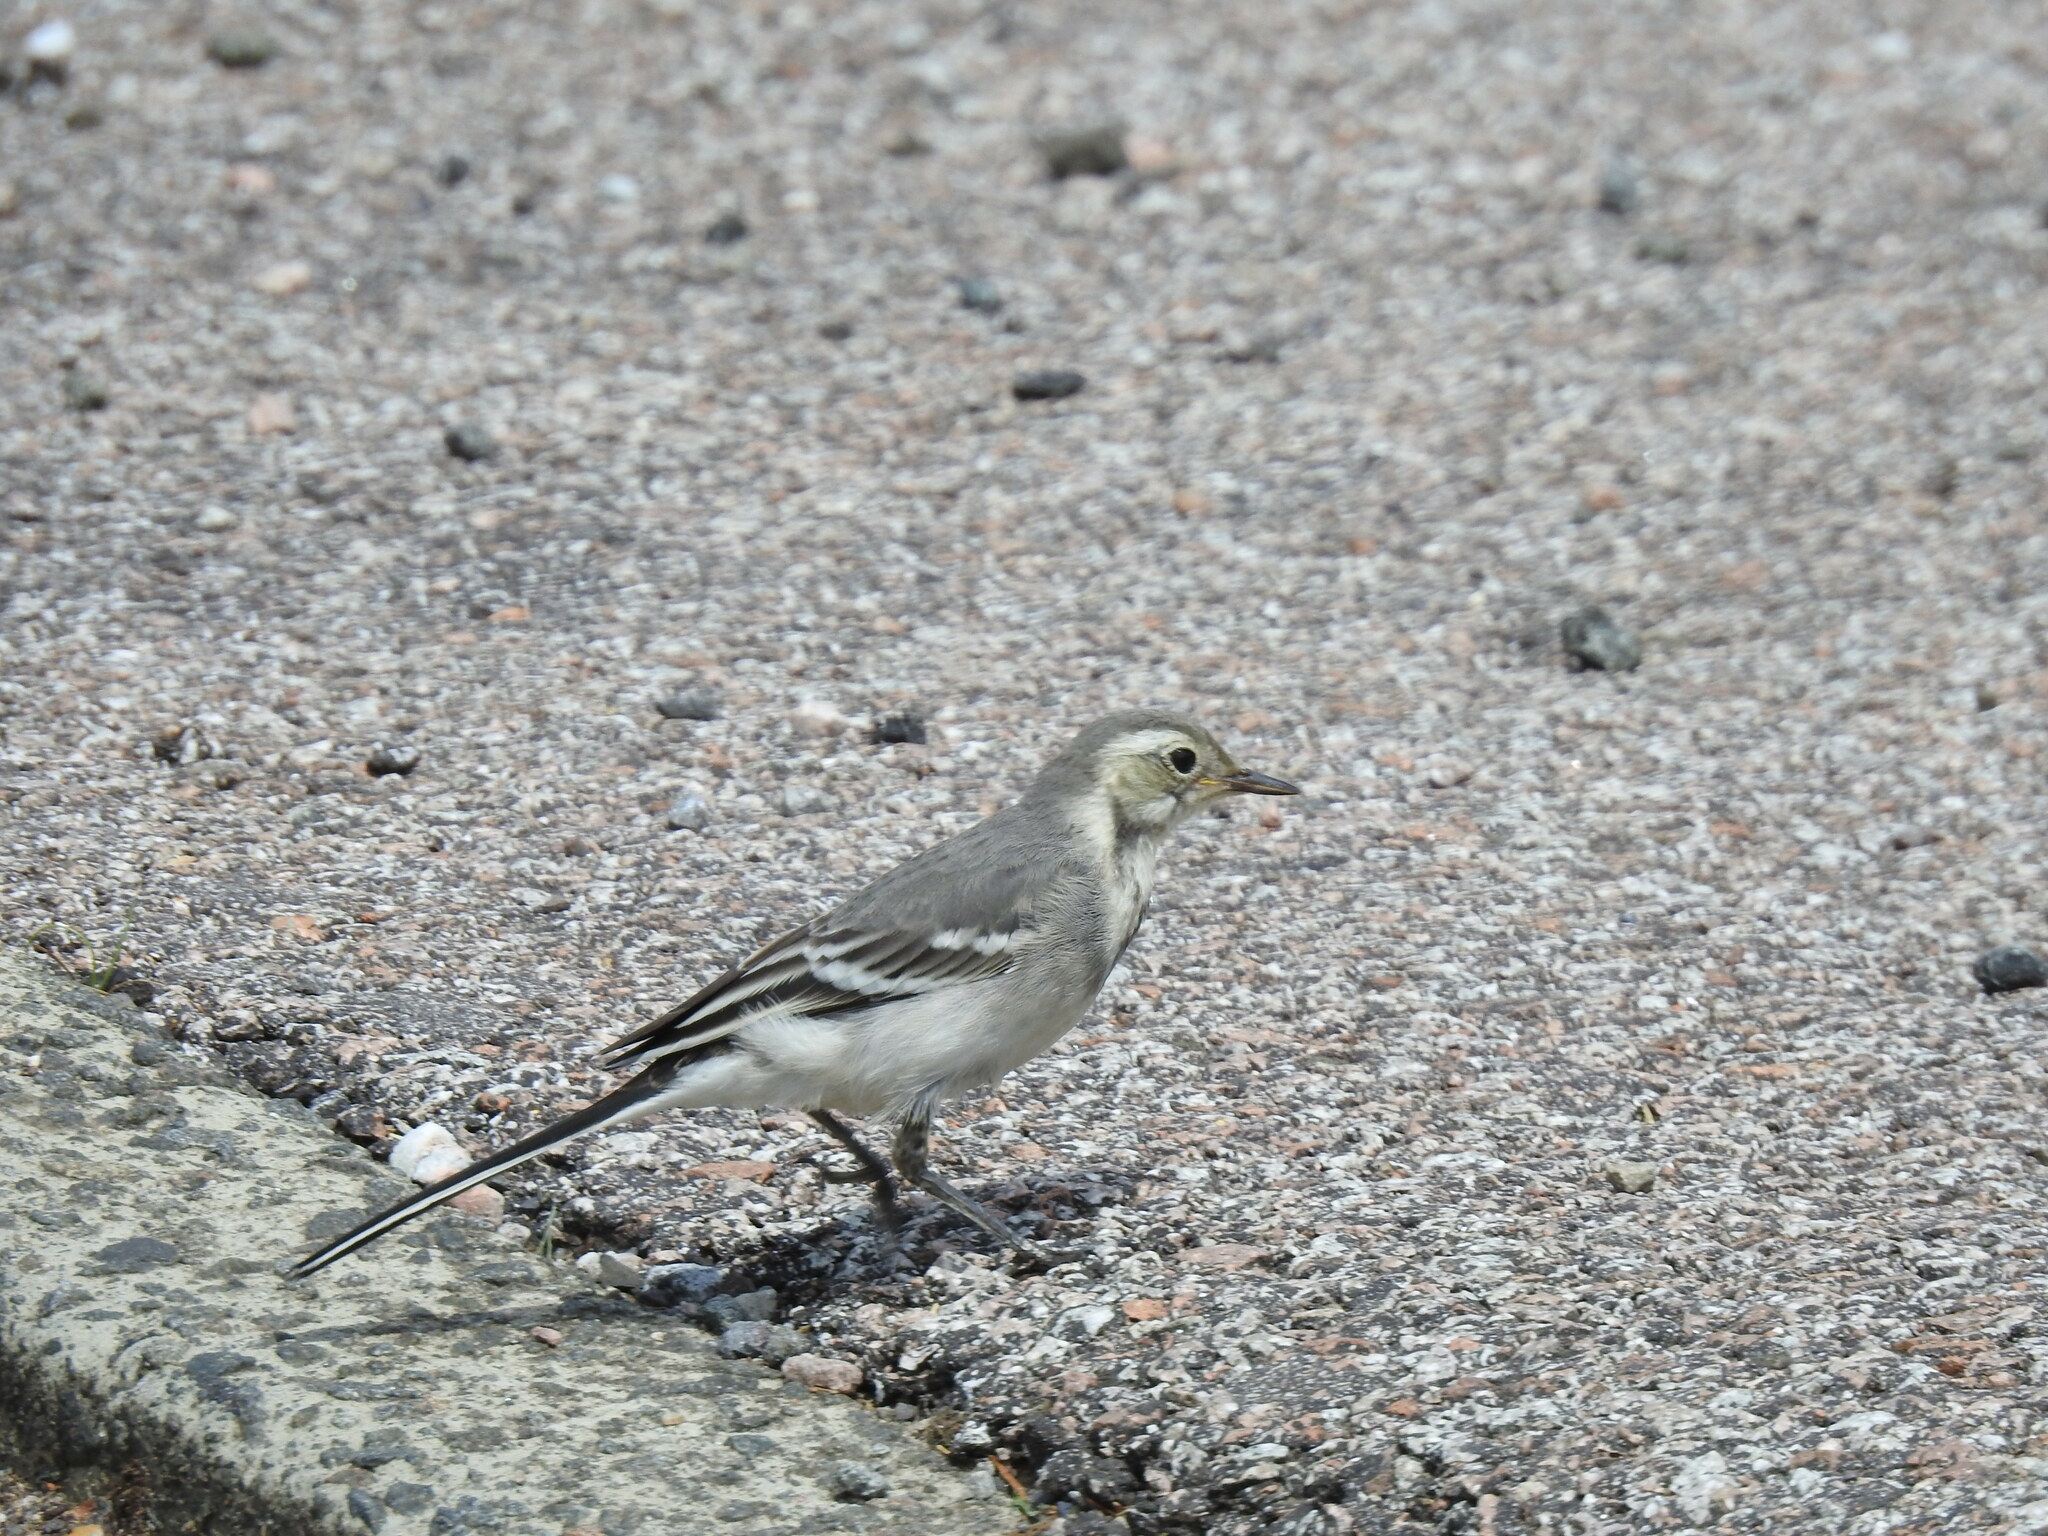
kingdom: Animalia
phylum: Chordata
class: Aves
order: Passeriformes
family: Motacillidae
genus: Motacilla
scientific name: Motacilla alba
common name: White wagtail
